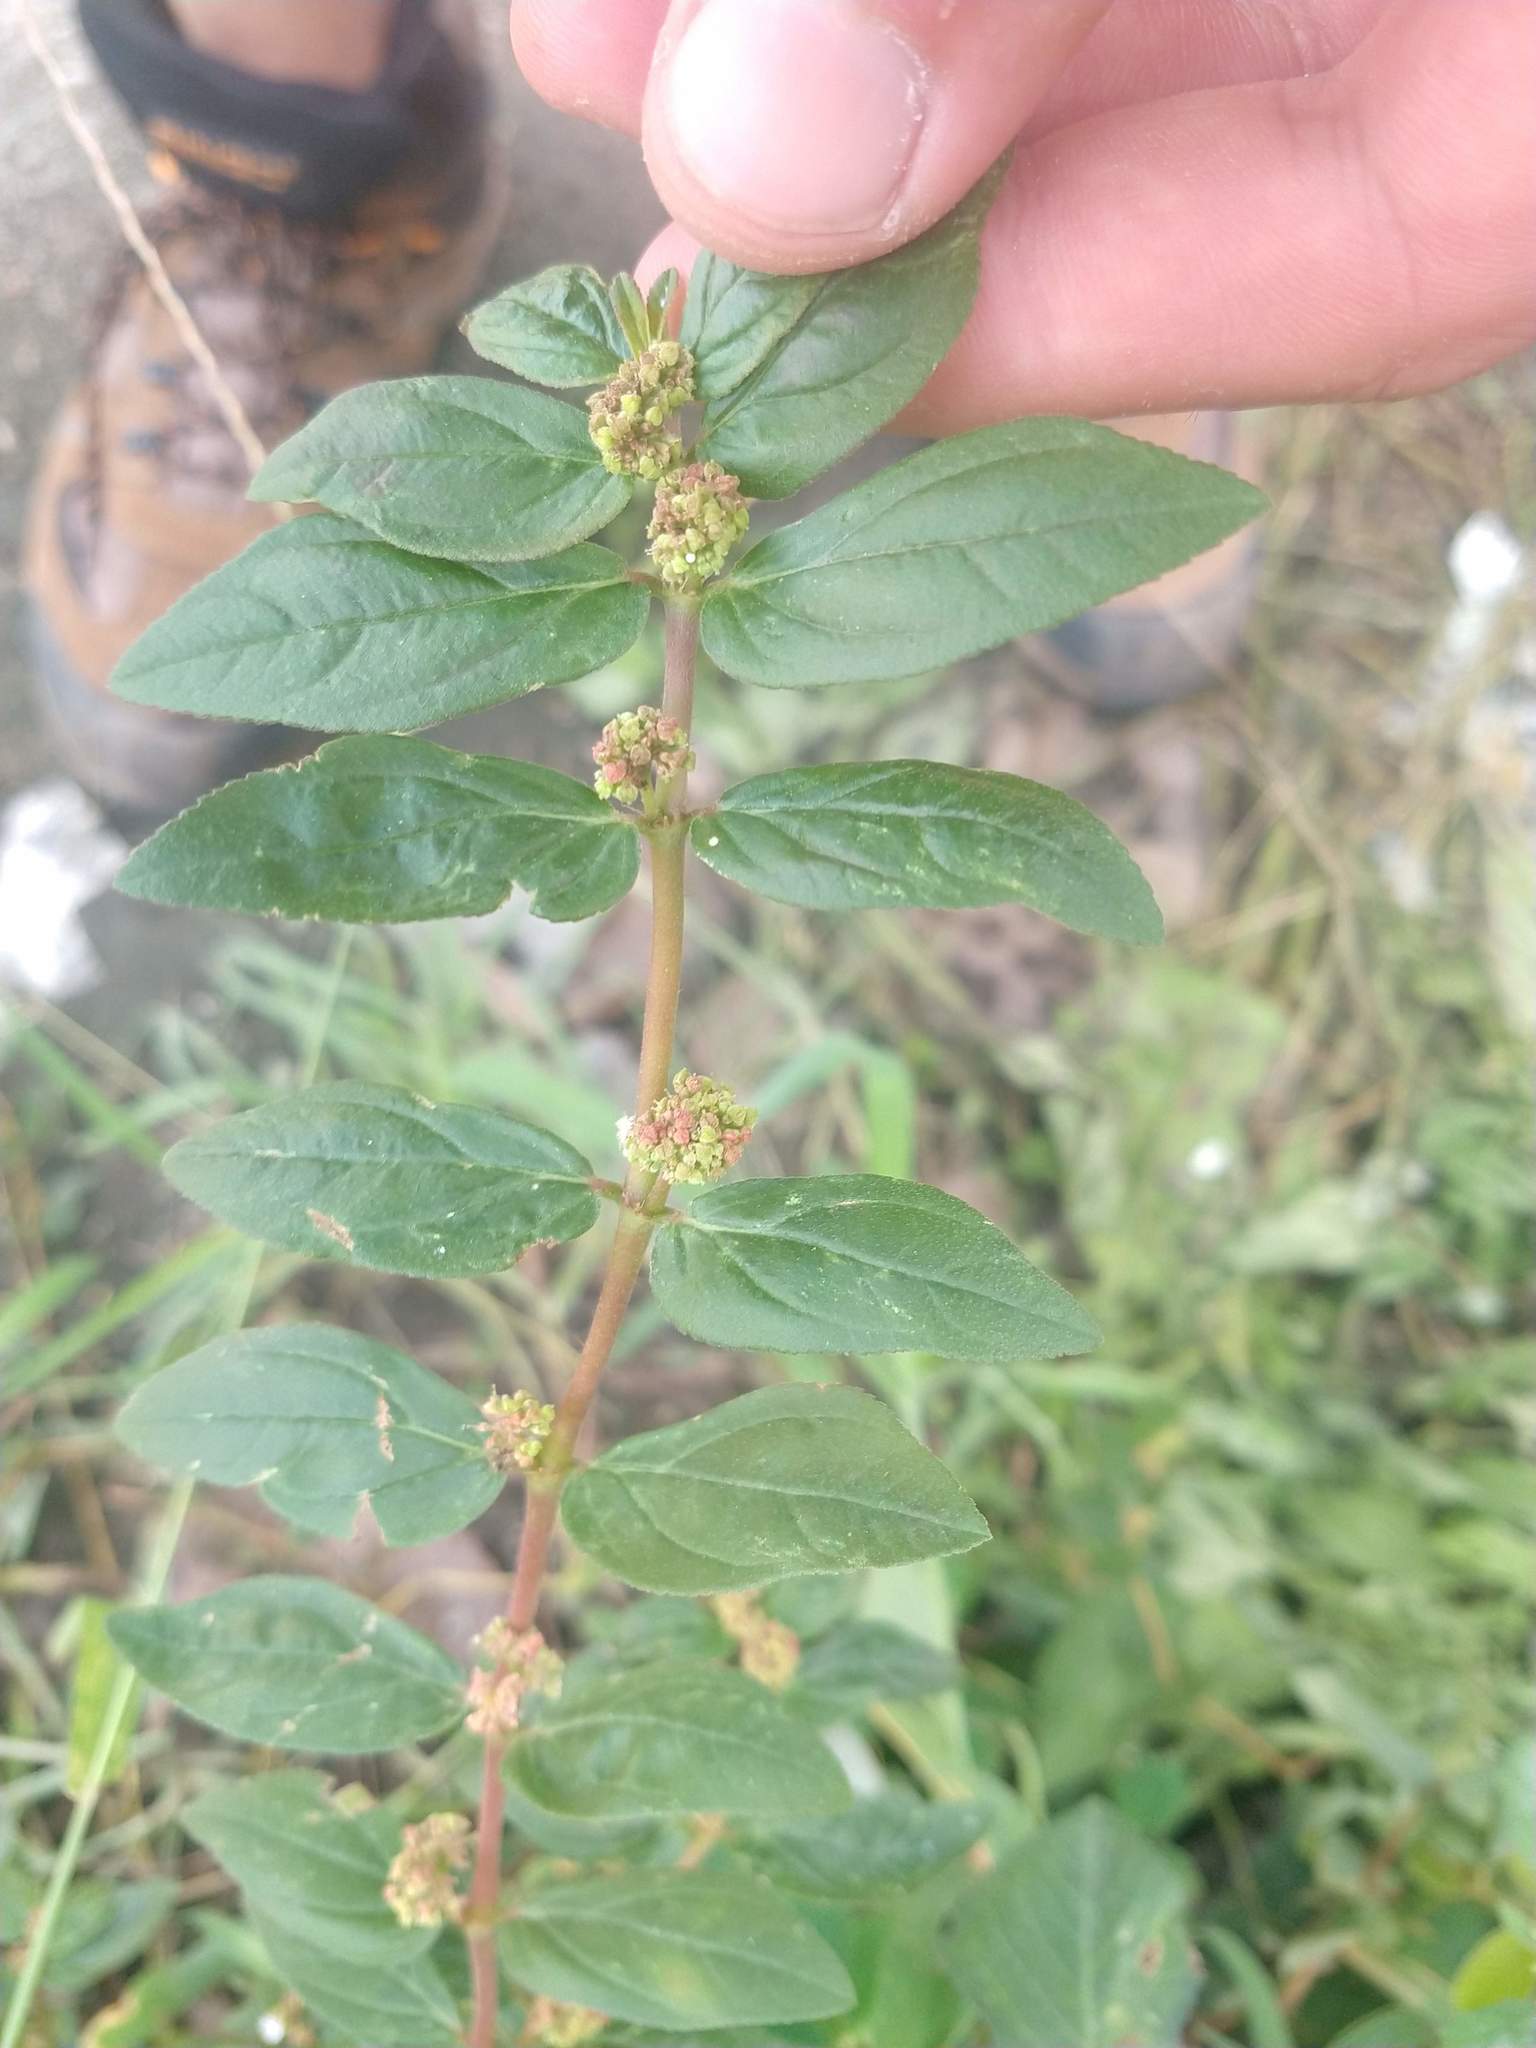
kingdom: Plantae
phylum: Tracheophyta
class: Magnoliopsida
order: Malpighiales
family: Euphorbiaceae
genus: Euphorbia
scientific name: Euphorbia hirta
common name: Pillpod sandmat
